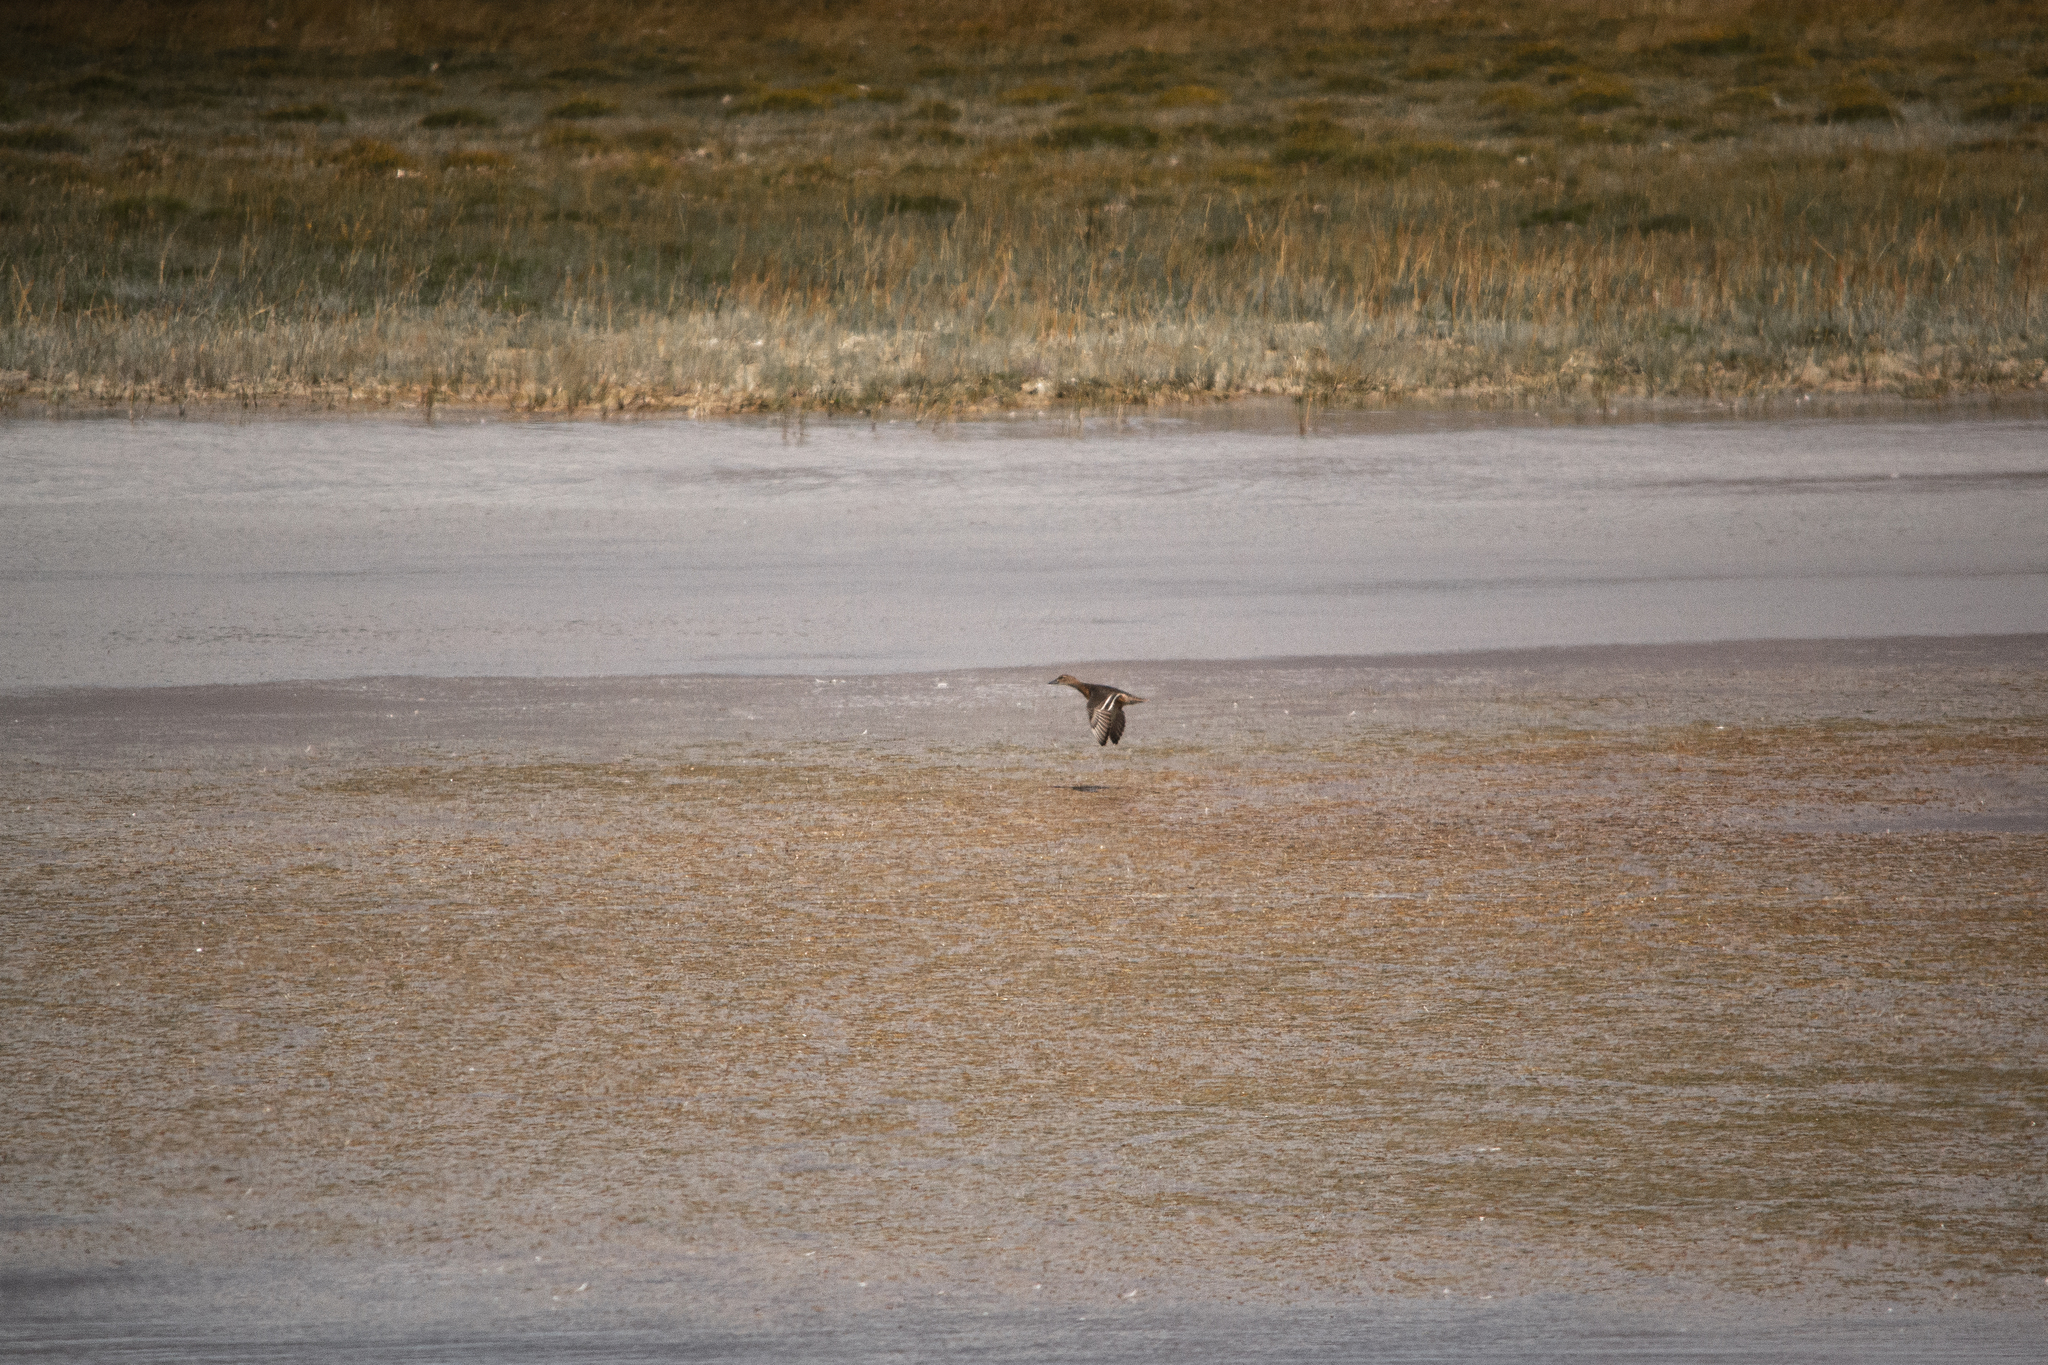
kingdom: Animalia
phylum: Chordata
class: Aves
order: Anseriformes
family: Anatidae
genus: Spatula
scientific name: Spatula querquedula
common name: Garganey
